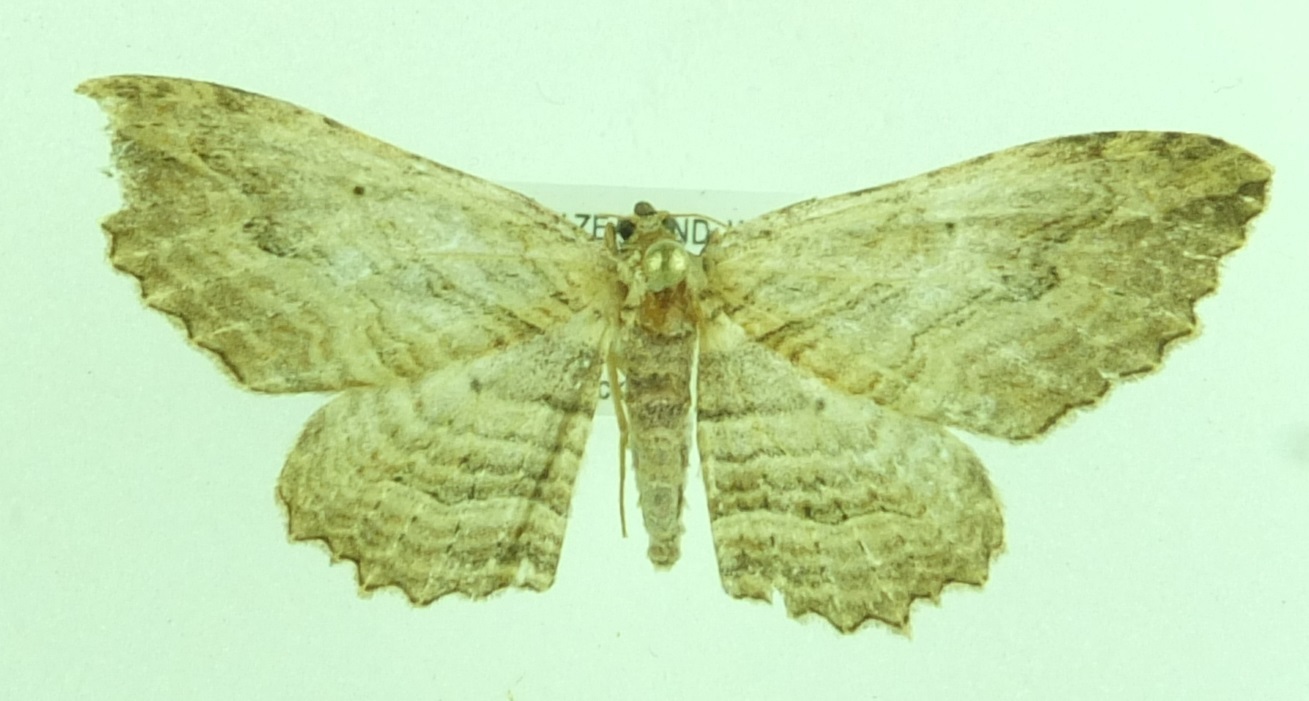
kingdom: Animalia
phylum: Arthropoda
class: Insecta
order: Lepidoptera
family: Geometridae
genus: Austrocidaria
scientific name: Austrocidaria bipartita
